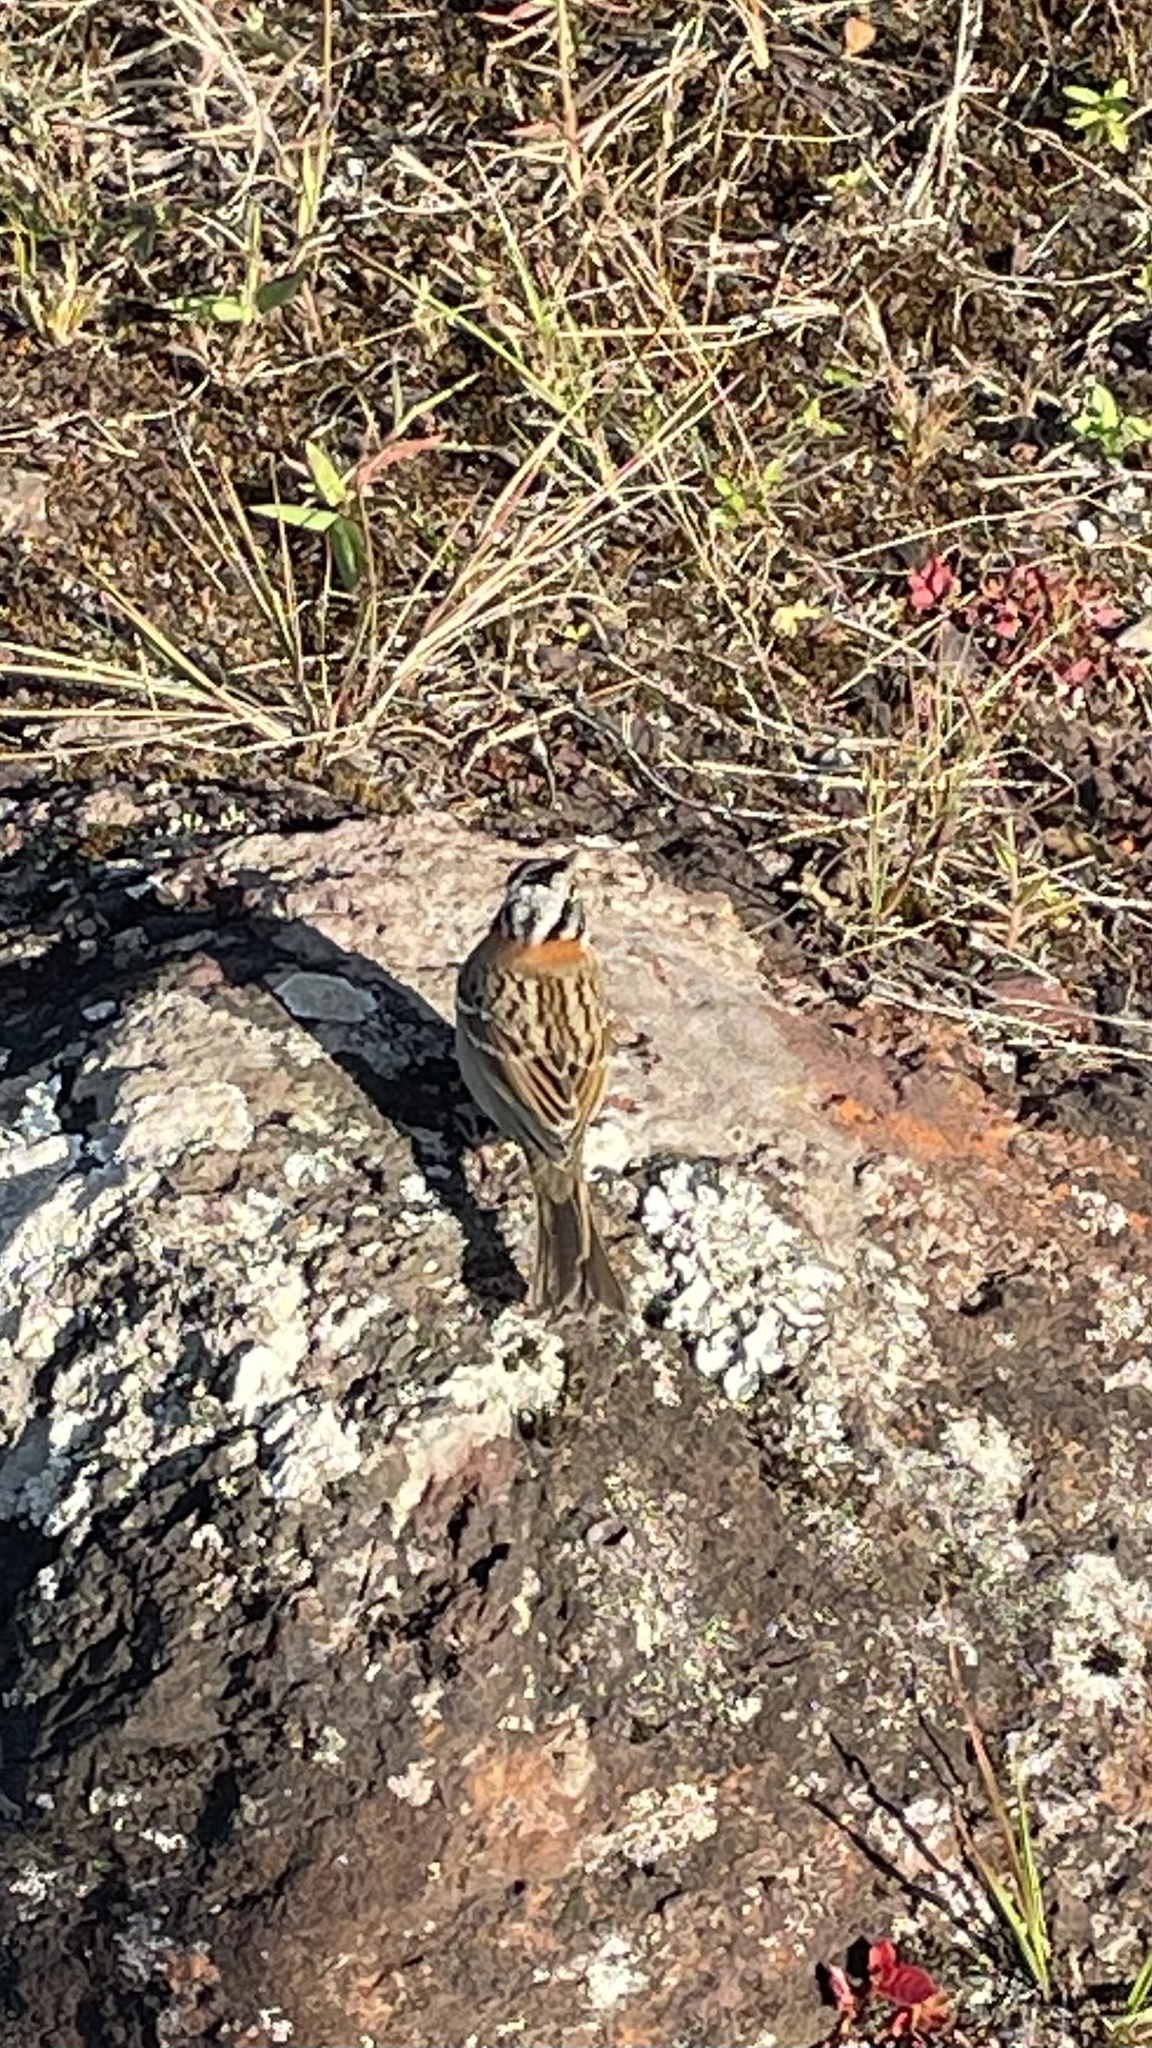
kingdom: Animalia
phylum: Chordata
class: Aves
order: Passeriformes
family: Passerellidae
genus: Zonotrichia
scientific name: Zonotrichia capensis
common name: Rufous-collared sparrow
